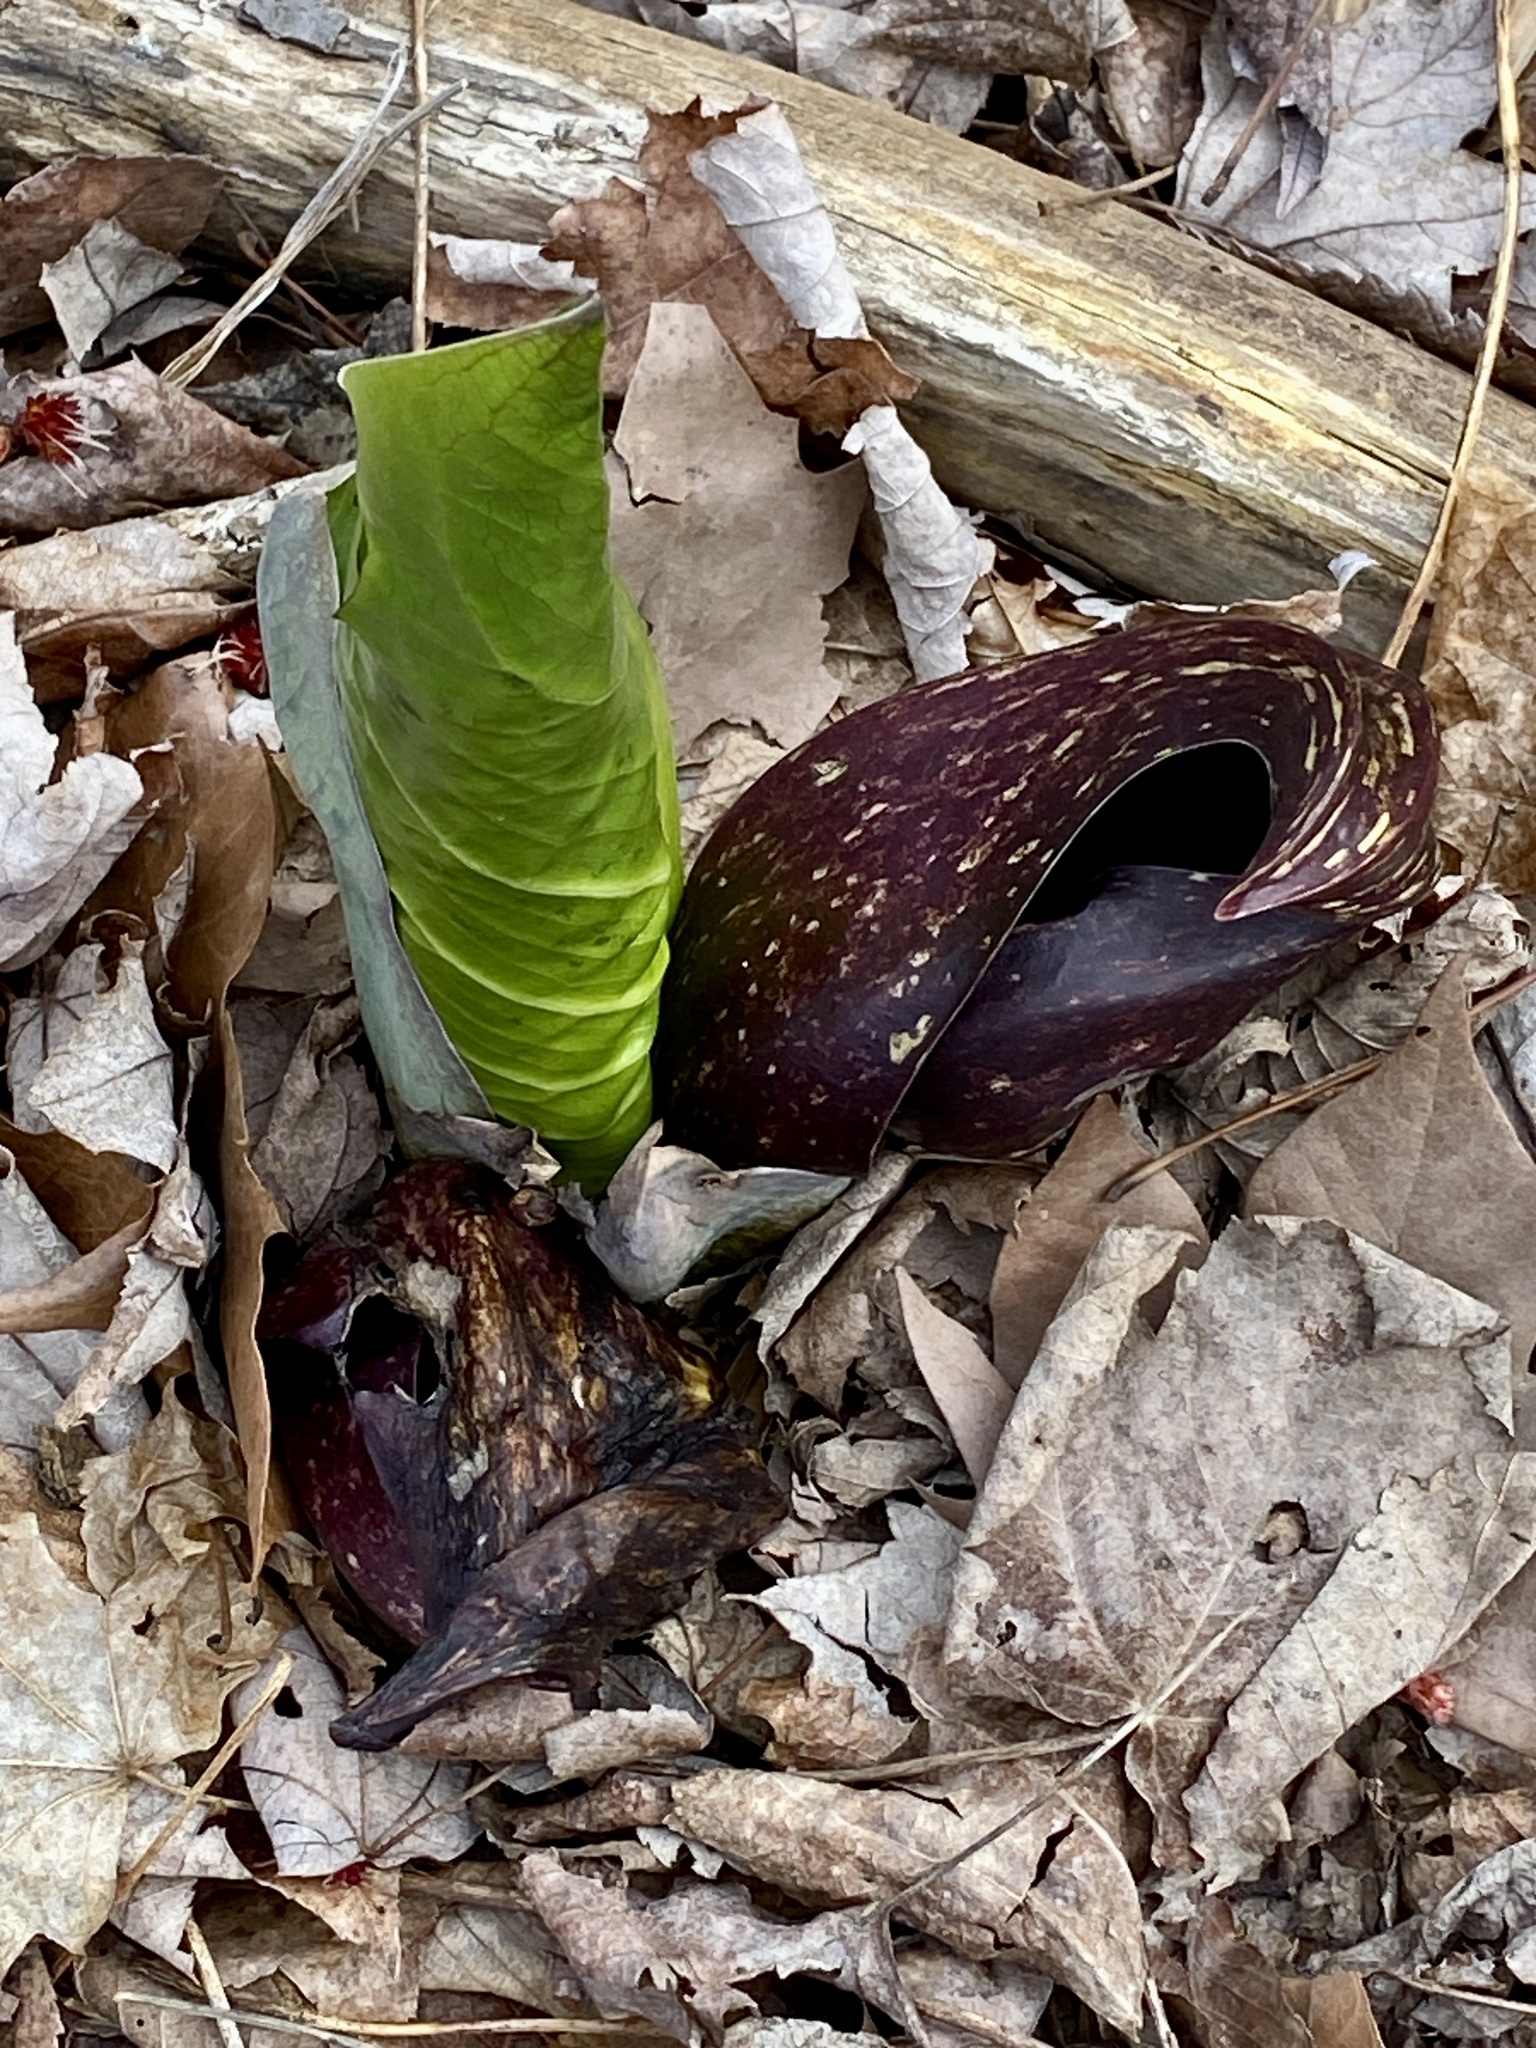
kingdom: Plantae
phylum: Tracheophyta
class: Liliopsida
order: Alismatales
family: Araceae
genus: Symplocarpus
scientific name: Symplocarpus foetidus
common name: Eastern skunk cabbage
